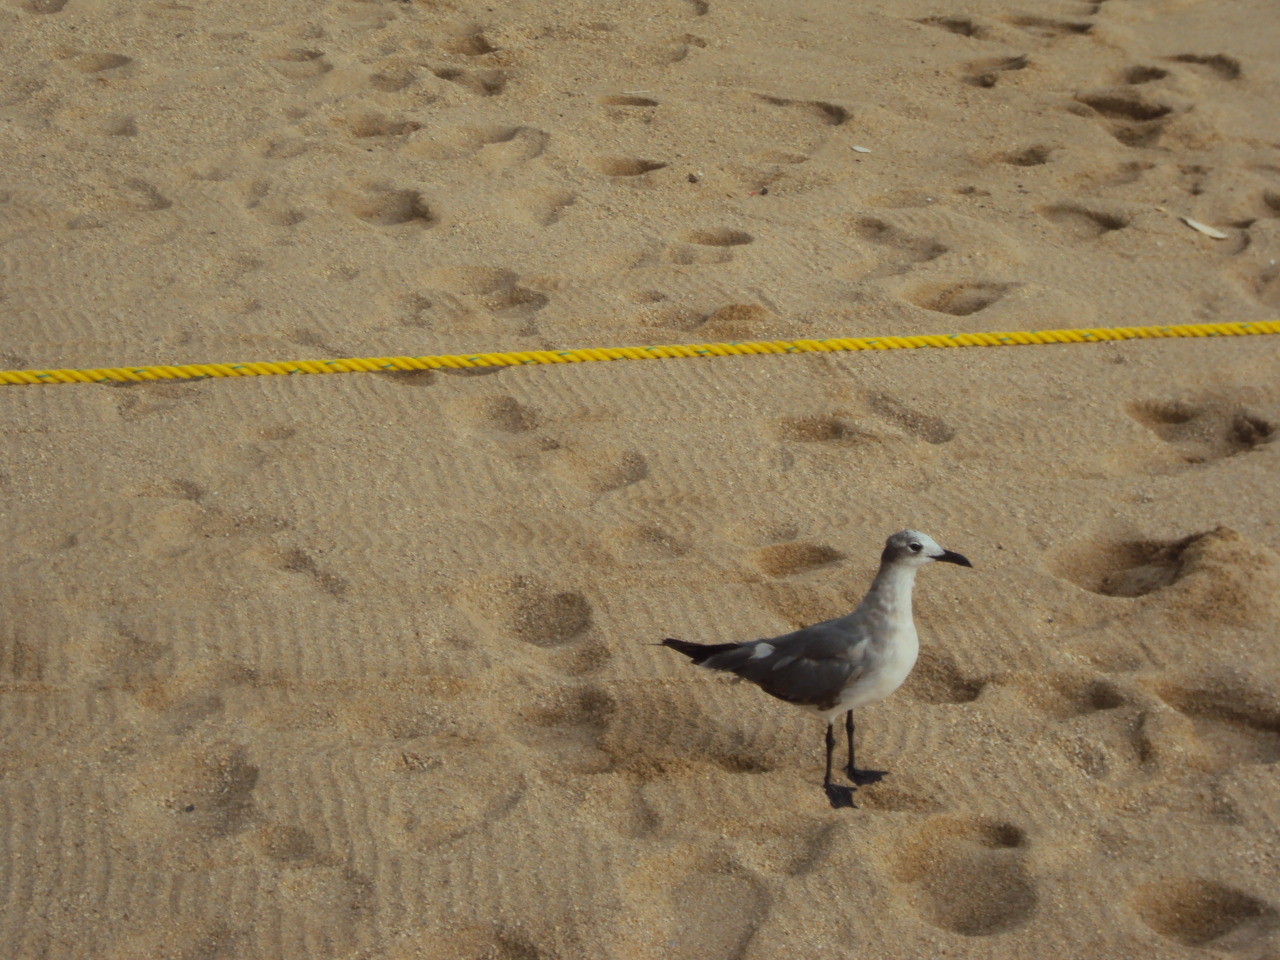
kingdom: Animalia
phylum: Chordata
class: Aves
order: Charadriiformes
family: Laridae
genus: Leucophaeus
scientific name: Leucophaeus atricilla
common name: Laughing gull
